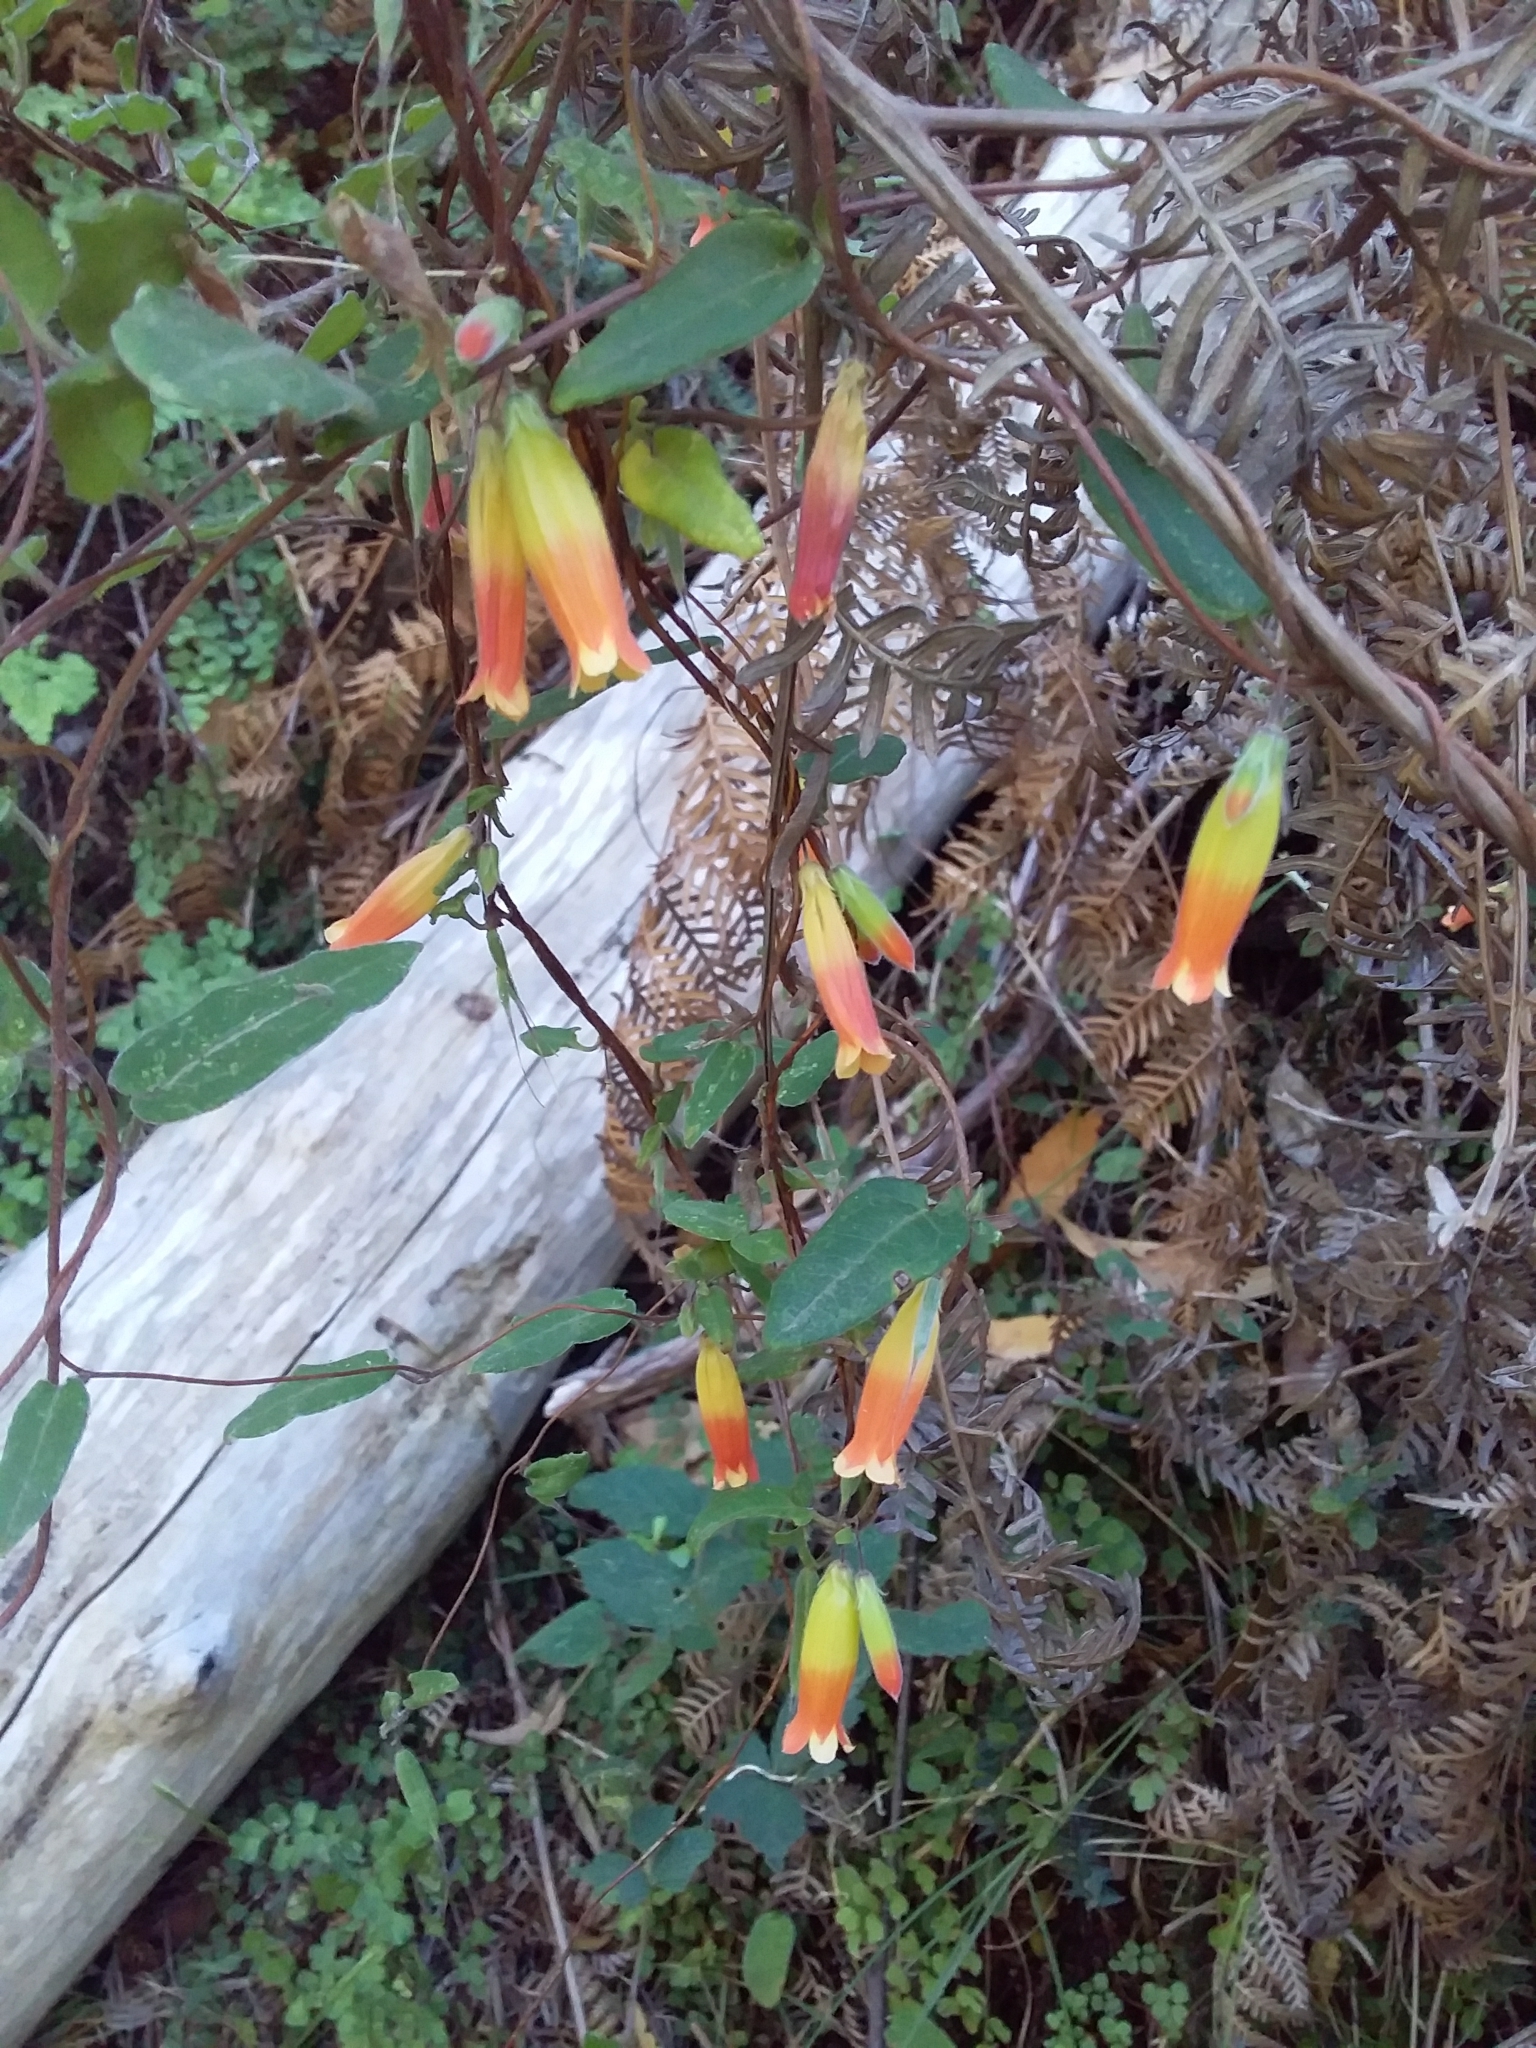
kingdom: Plantae
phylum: Tracheophyta
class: Magnoliopsida
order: Apiales
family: Pittosporaceae
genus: Marianthus
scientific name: Marianthus bignoniaceus
